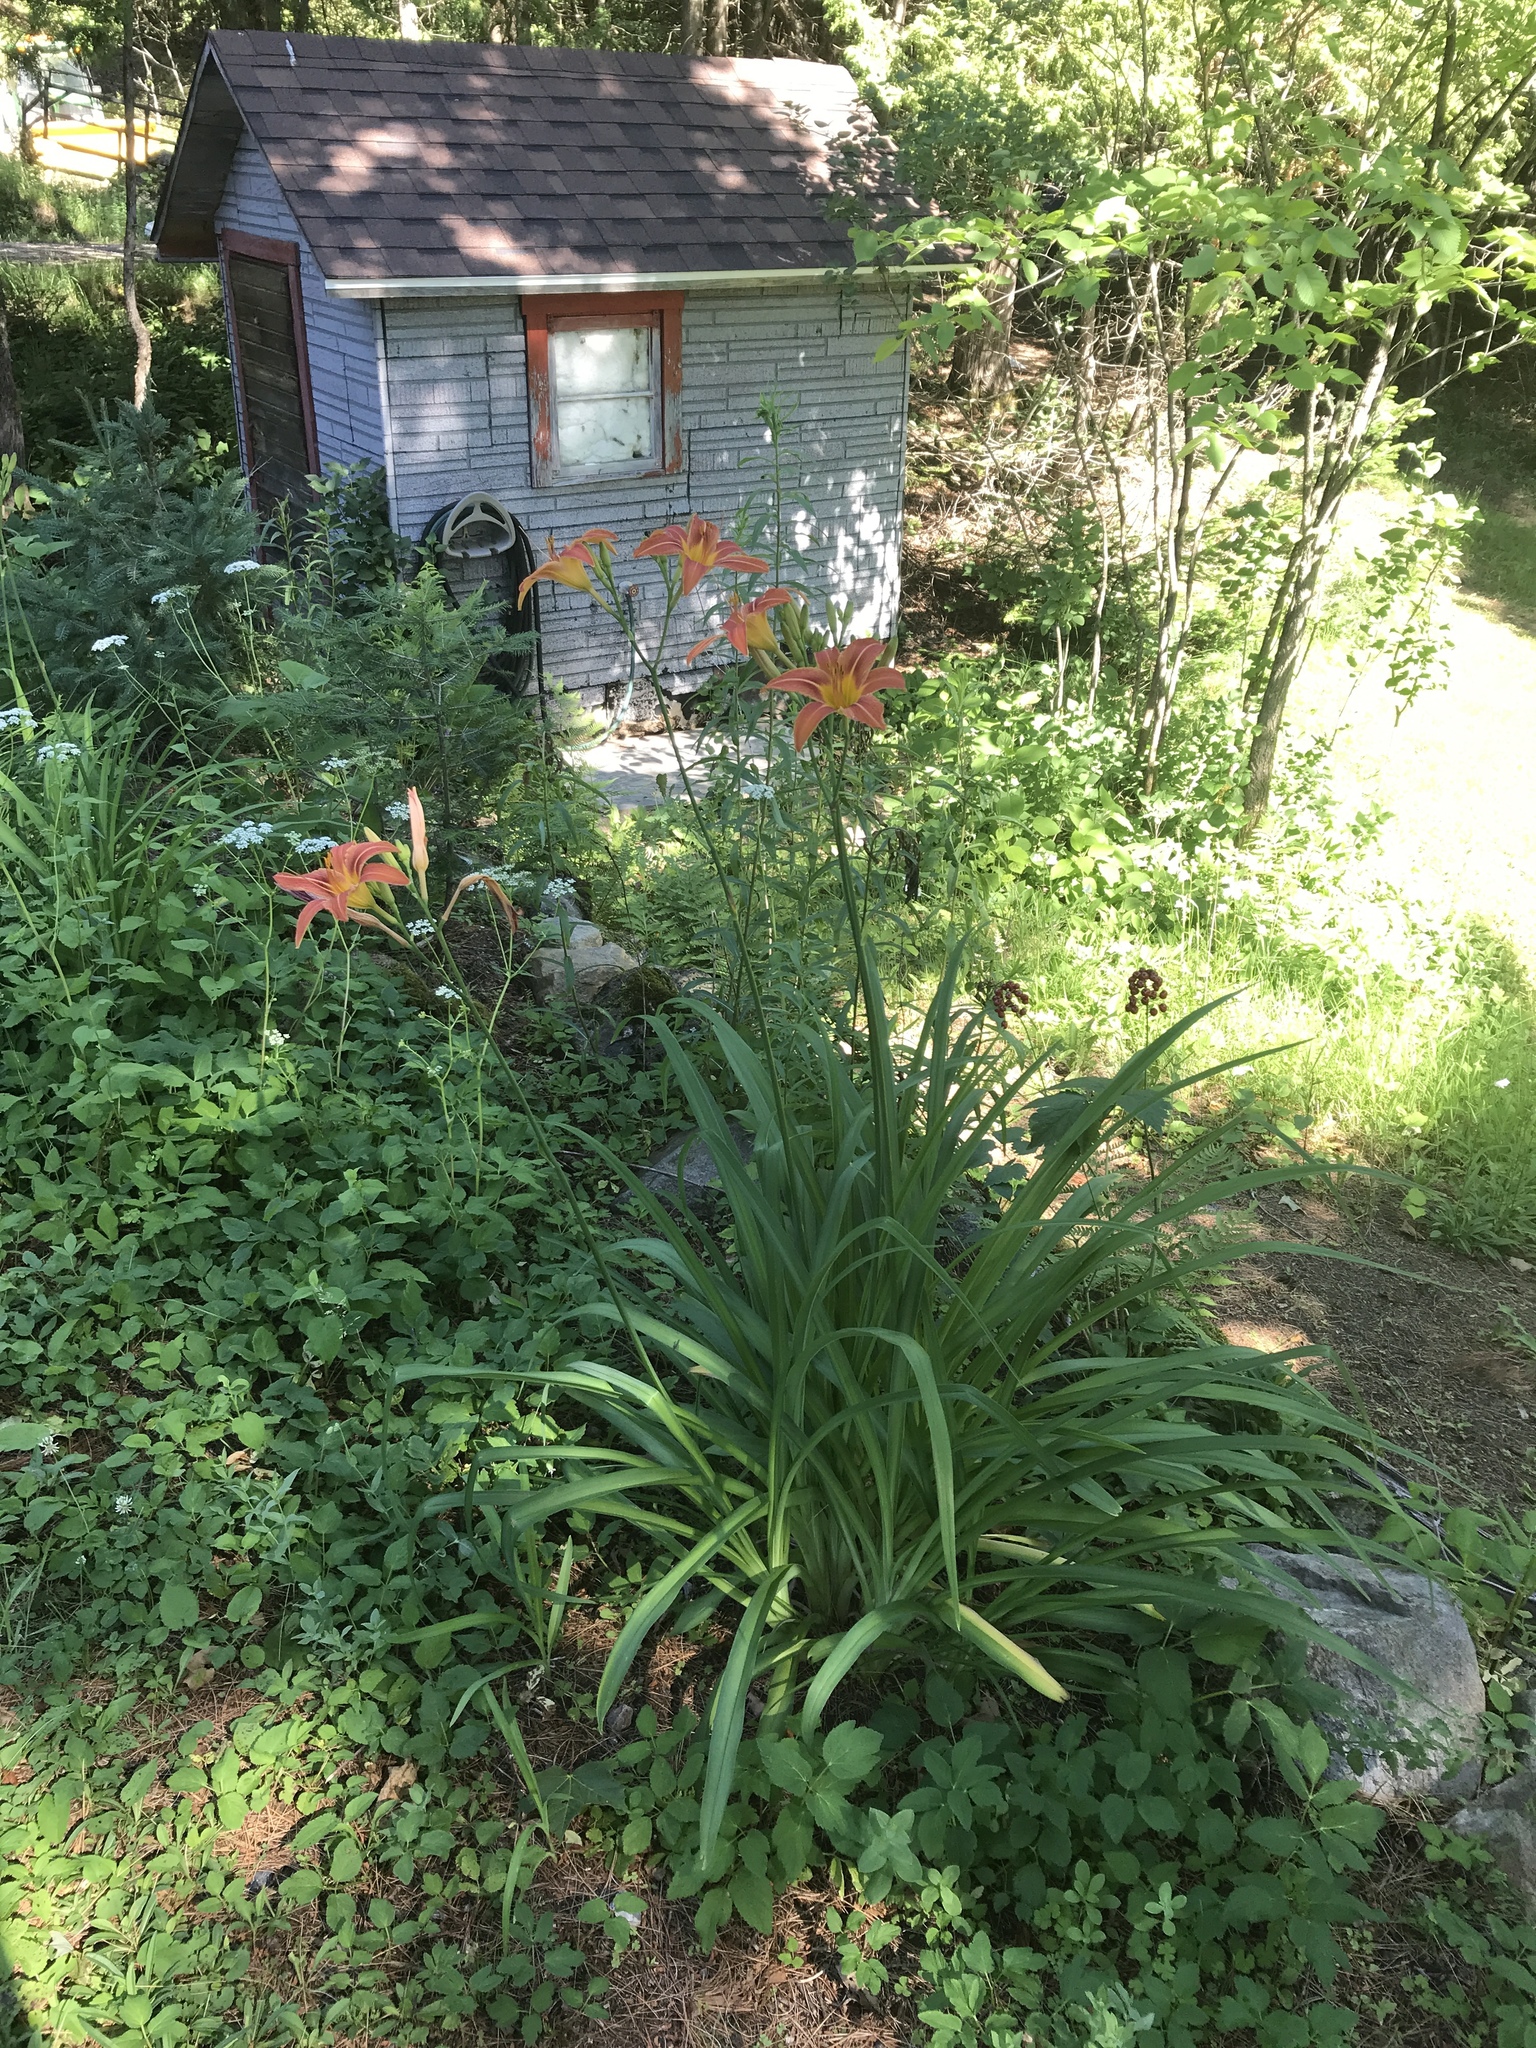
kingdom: Plantae
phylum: Tracheophyta
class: Liliopsida
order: Asparagales
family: Asphodelaceae
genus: Hemerocallis
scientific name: Hemerocallis fulva
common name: Orange day-lily
